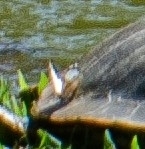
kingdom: Animalia
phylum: Arthropoda
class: Insecta
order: Lepidoptera
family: Nymphalidae
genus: Eunica
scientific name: Eunica eburnea
